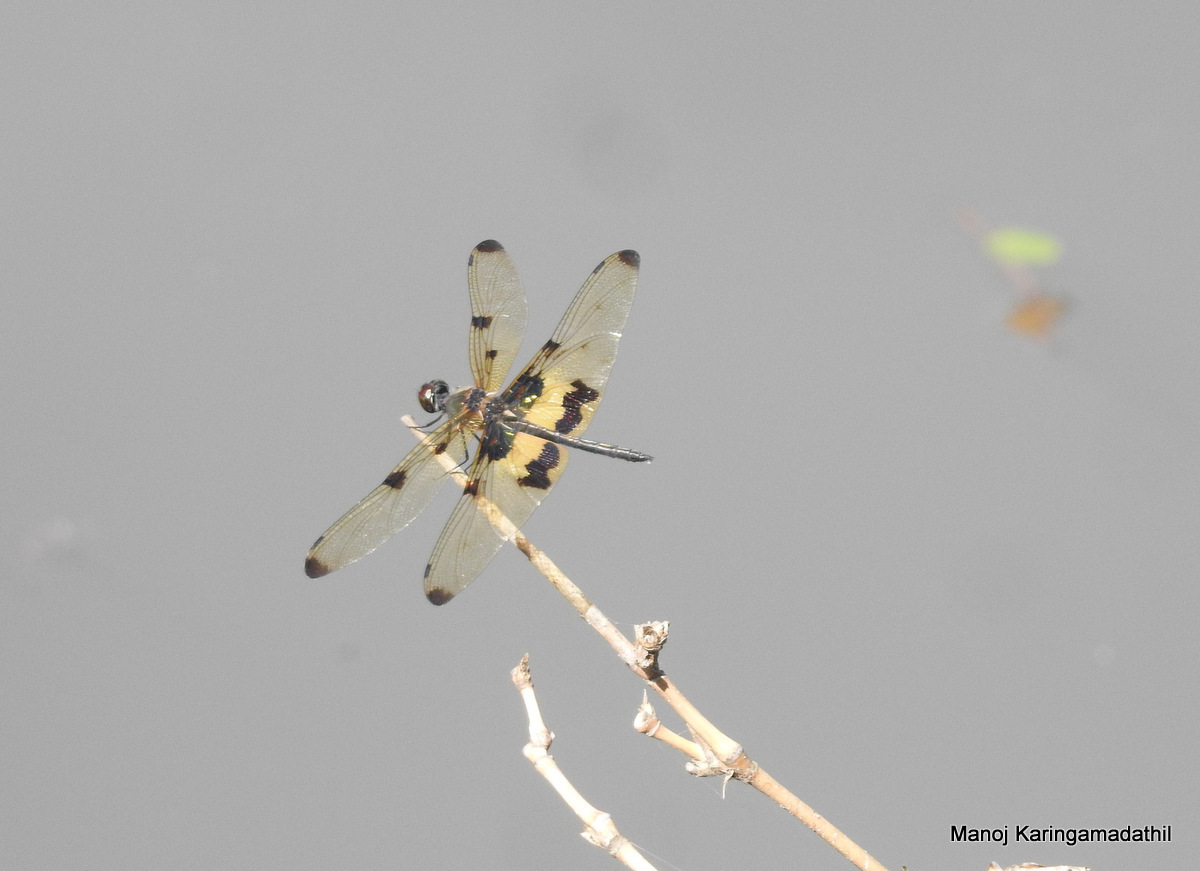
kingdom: Animalia
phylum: Arthropoda
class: Insecta
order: Odonata
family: Libellulidae
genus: Rhyothemis
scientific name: Rhyothemis variegata
